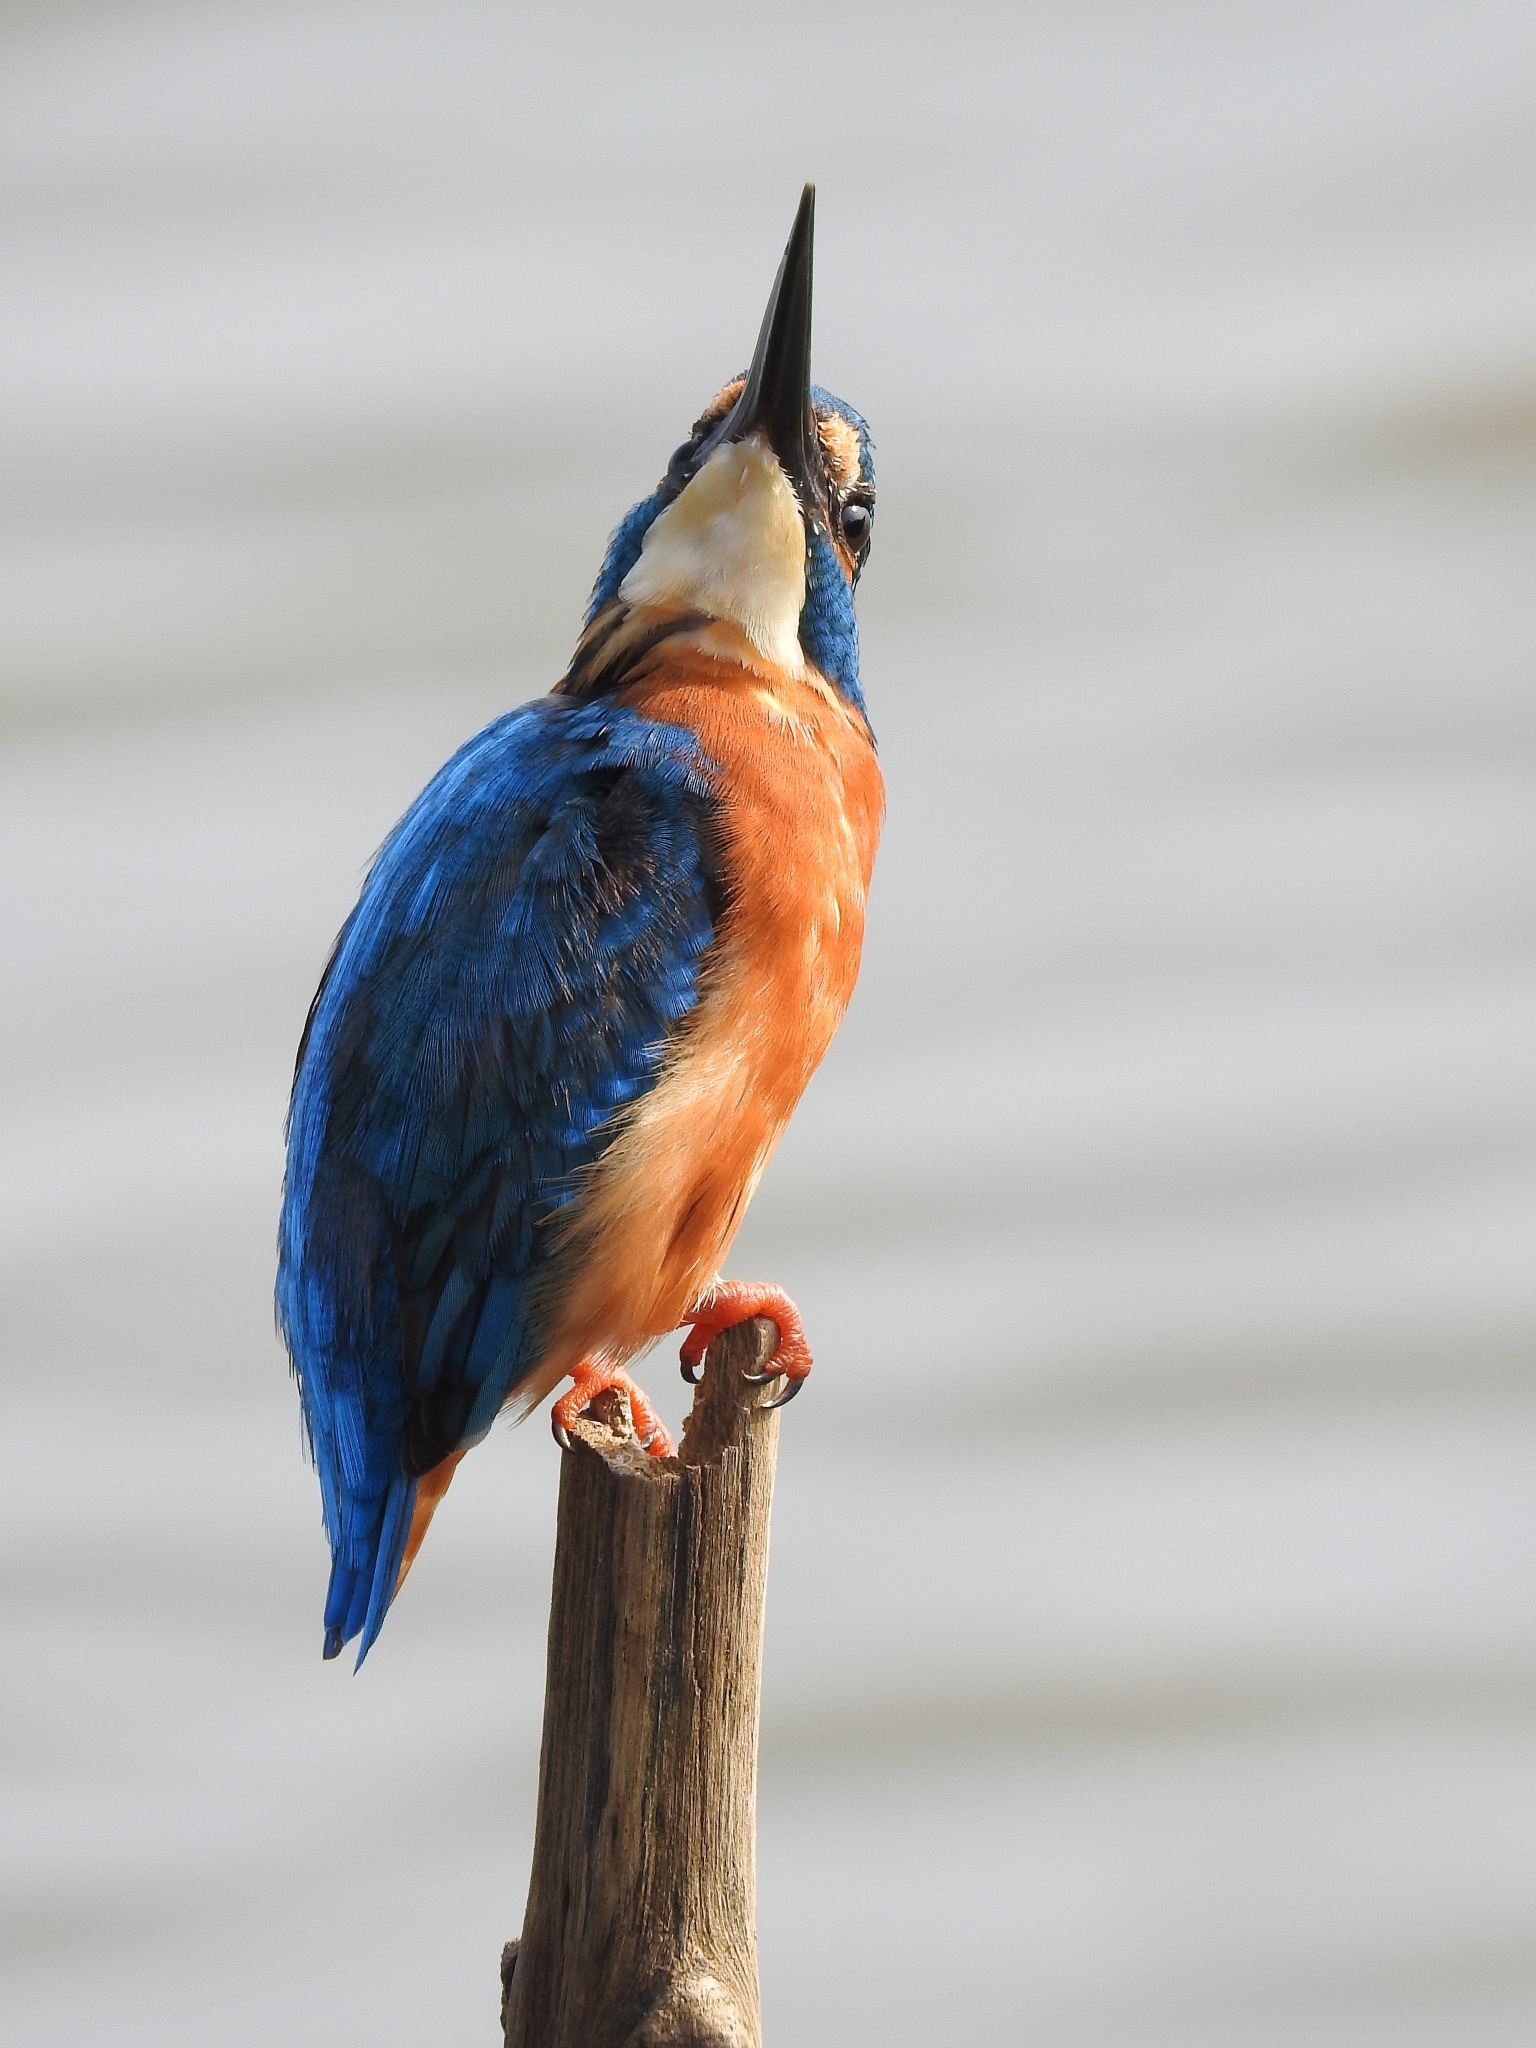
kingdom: Animalia
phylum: Chordata
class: Aves
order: Coraciiformes
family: Alcedinidae
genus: Alcedo
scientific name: Alcedo atthis
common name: Common kingfisher
